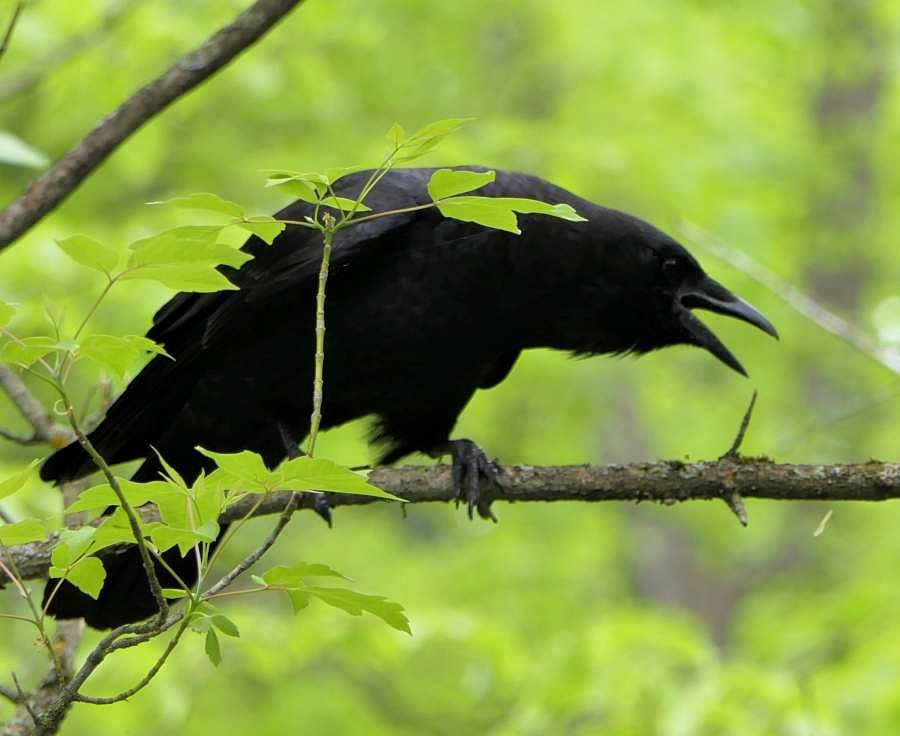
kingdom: Animalia
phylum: Chordata
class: Aves
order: Passeriformes
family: Corvidae
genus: Corvus
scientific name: Corvus brachyrhynchos
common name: American crow
